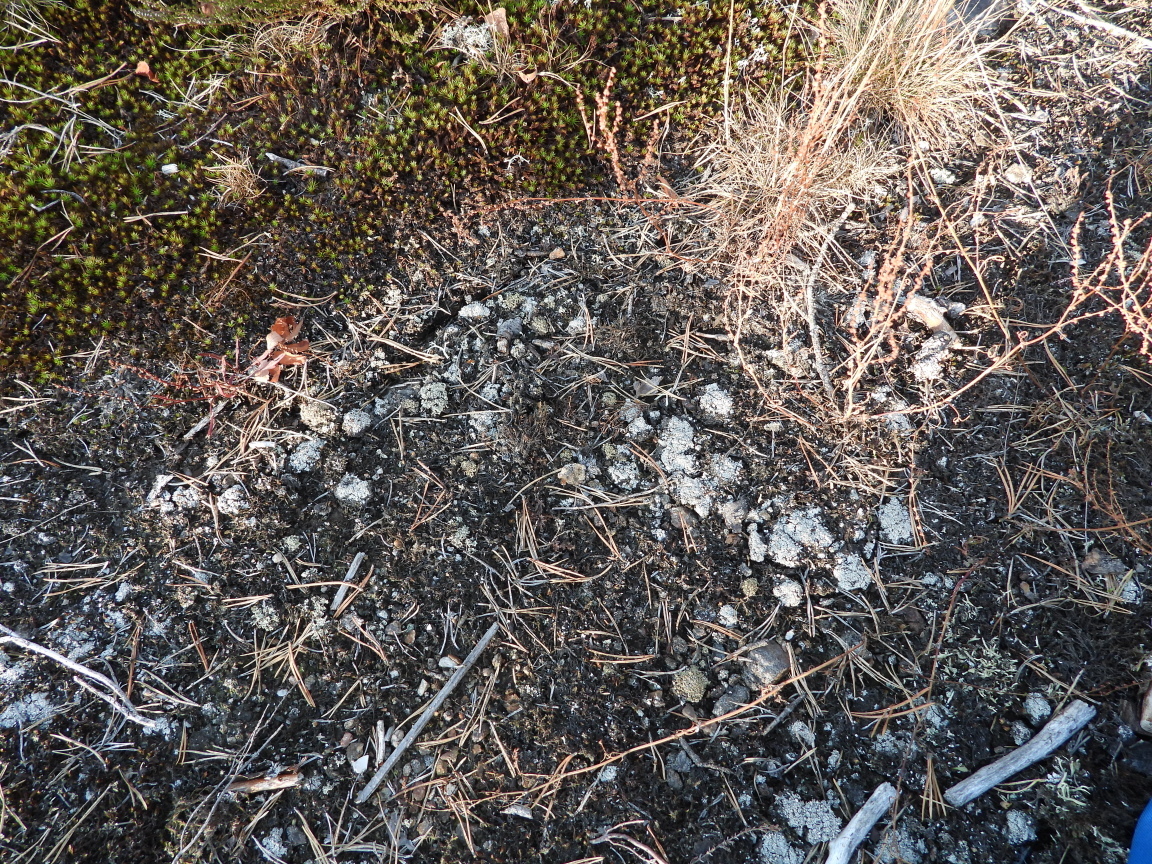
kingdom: Fungi
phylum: Ascomycota
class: Lecanoromycetes
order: Lecanorales
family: Cladoniaceae
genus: Pycnothelia
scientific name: Pycnothelia papillaria
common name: Nipple lichen
